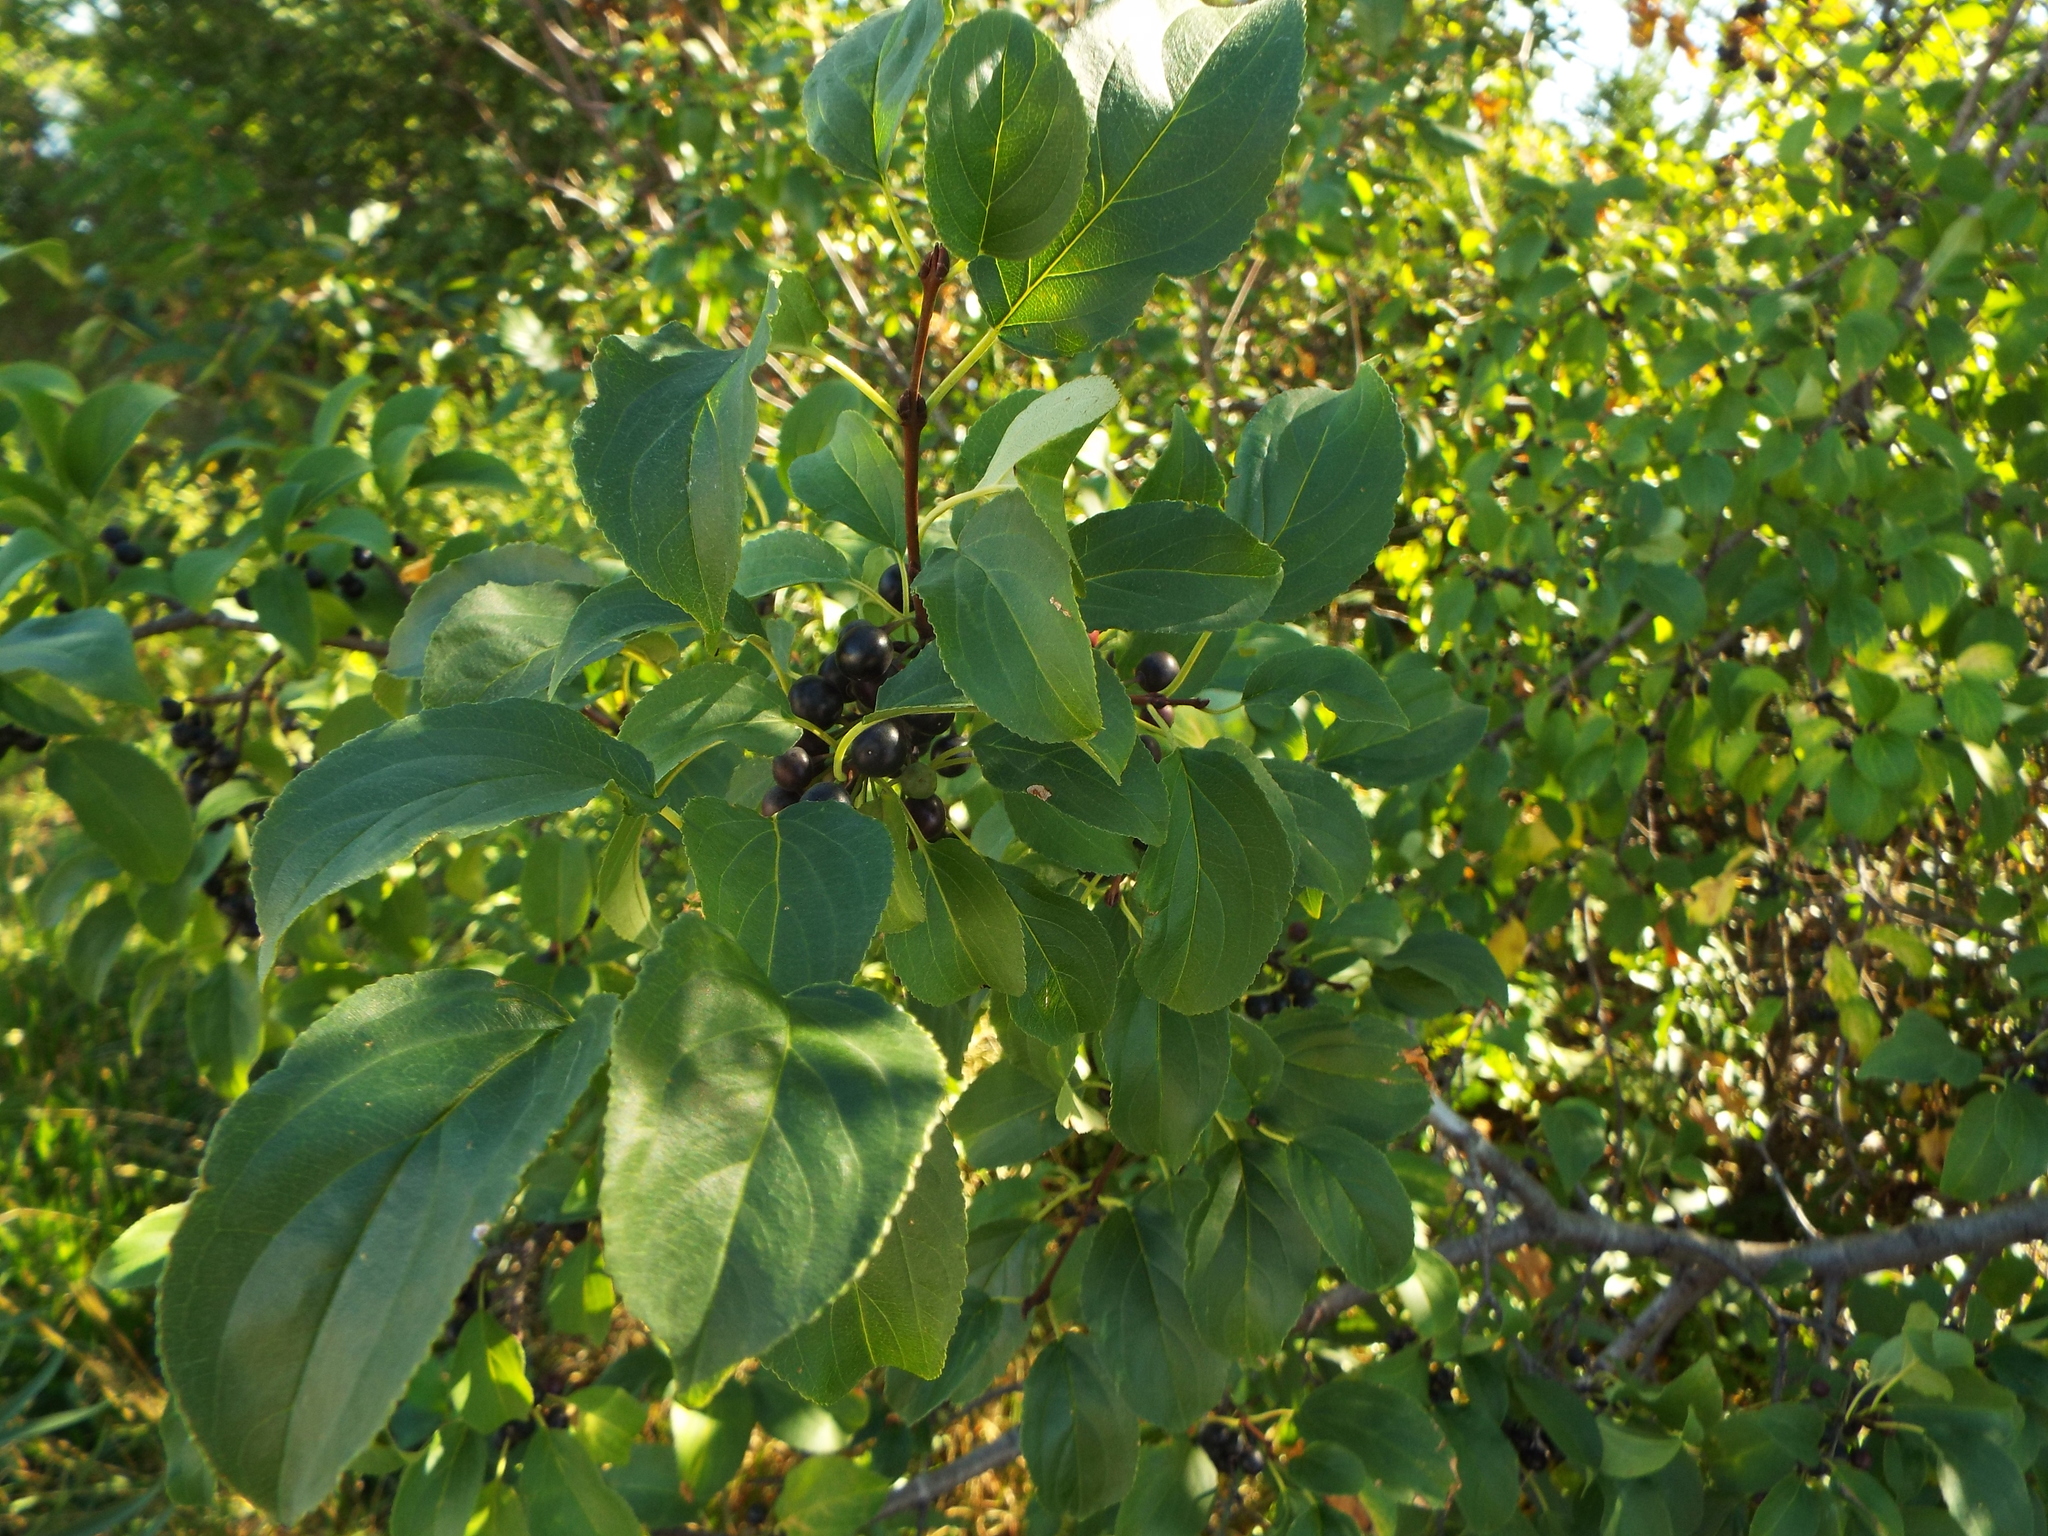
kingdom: Plantae
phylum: Tracheophyta
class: Magnoliopsida
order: Rosales
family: Rhamnaceae
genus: Rhamnus
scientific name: Rhamnus cathartica
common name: Common buckthorn
